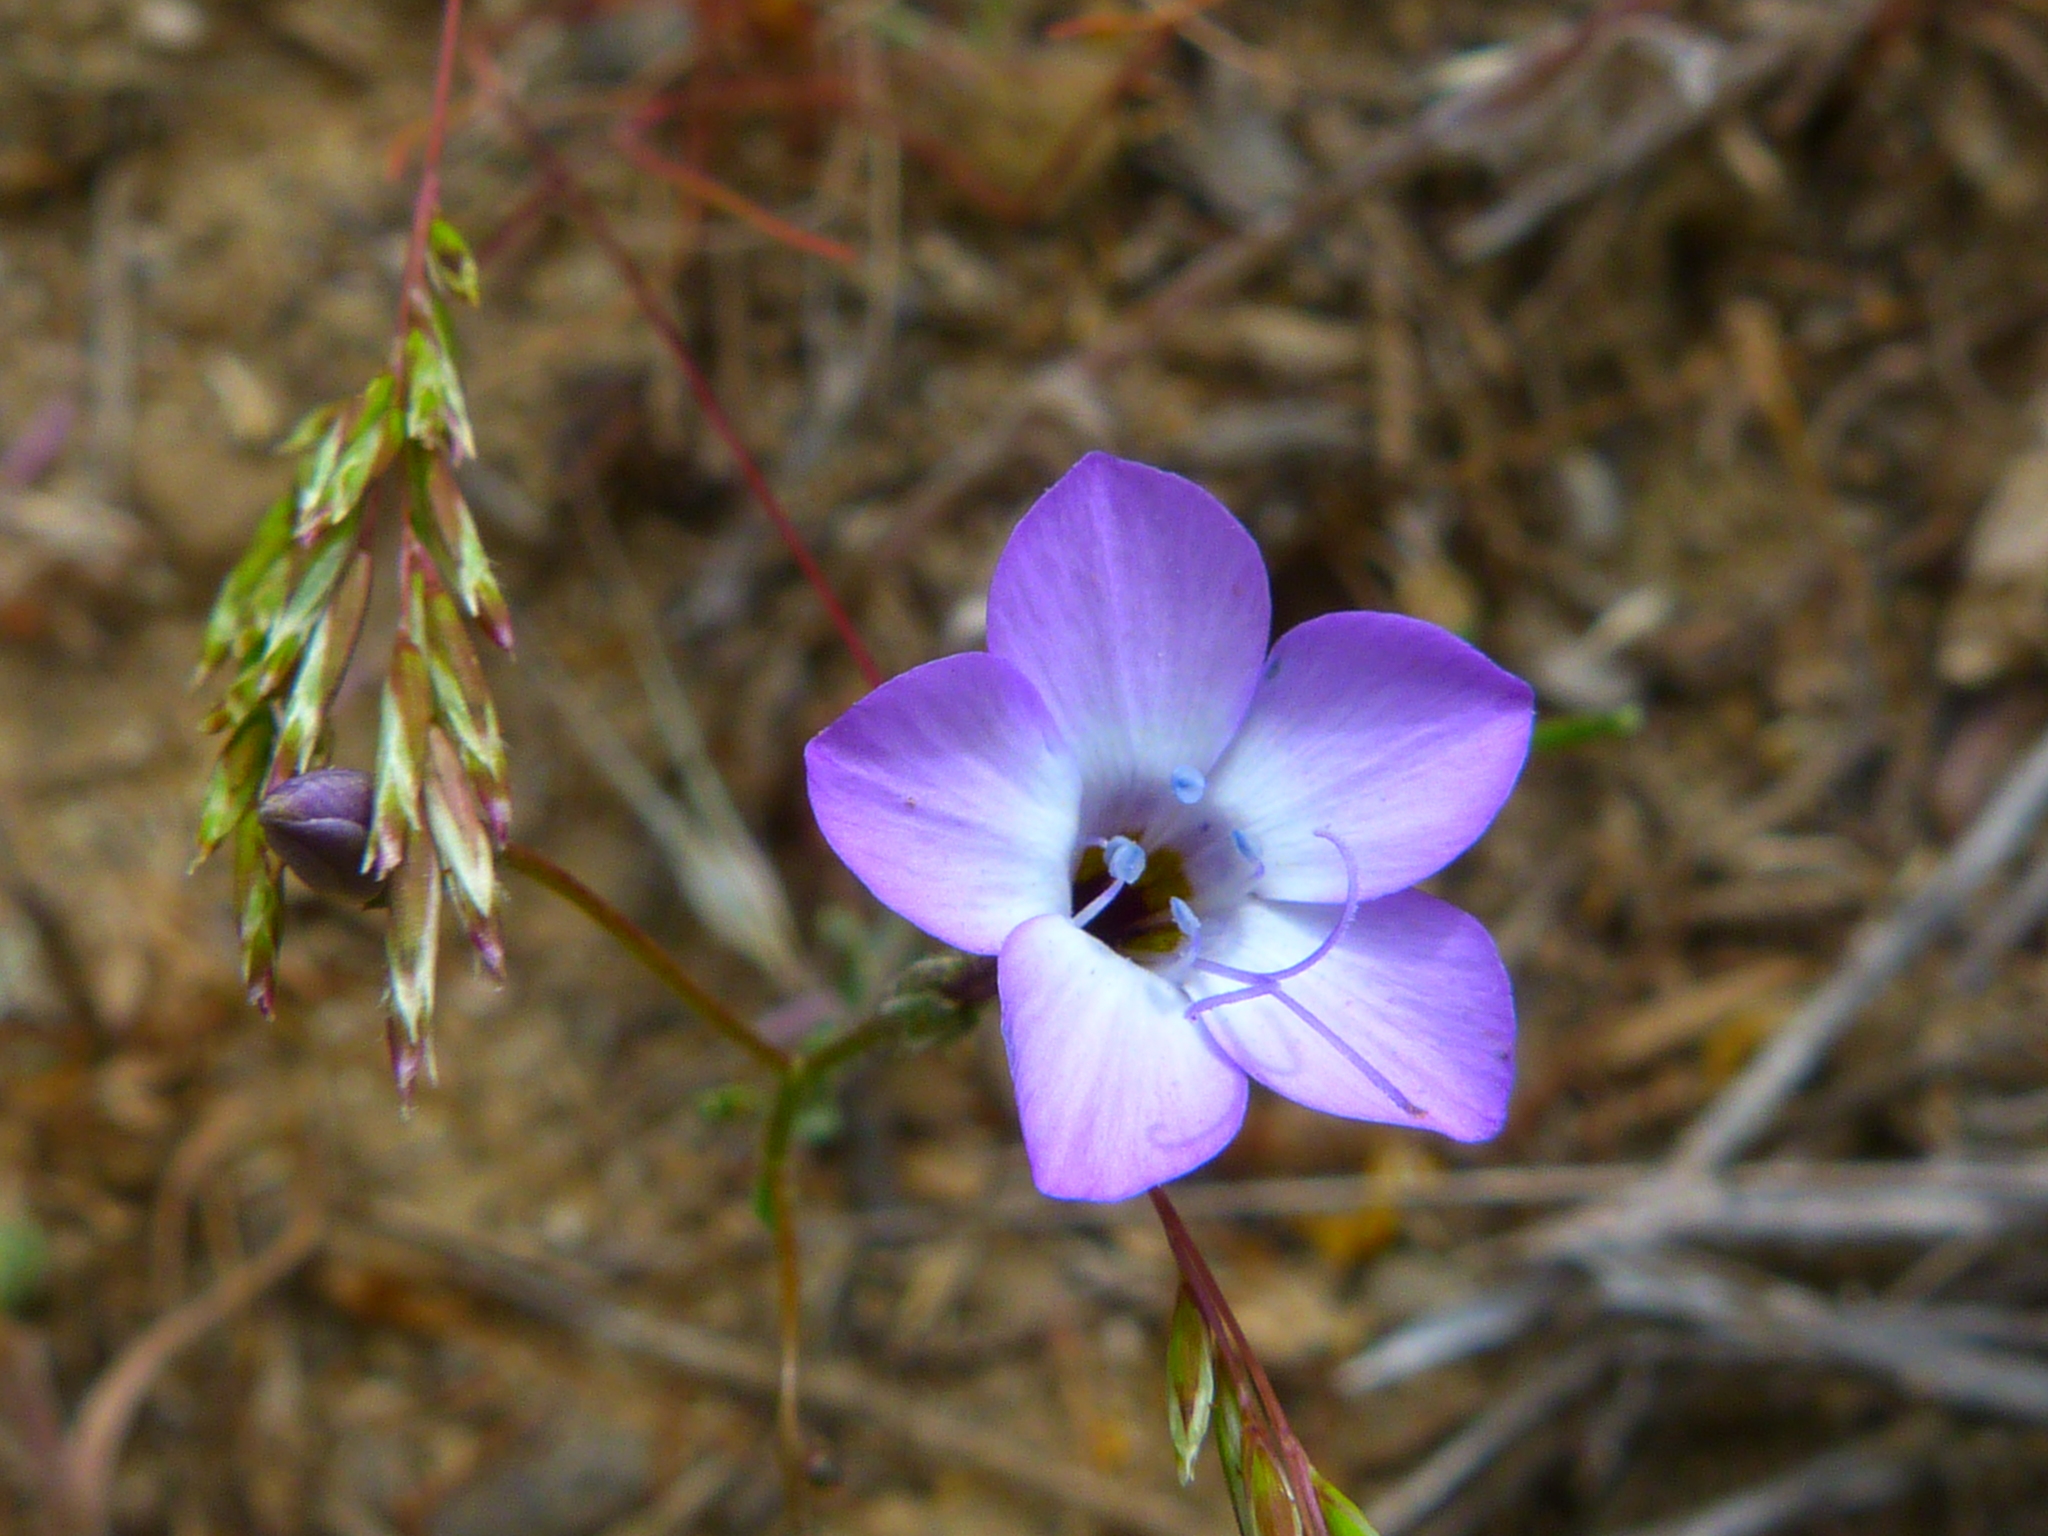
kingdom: Plantae
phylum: Tracheophyta
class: Magnoliopsida
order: Ericales
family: Polemoniaceae
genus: Gilia
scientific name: Gilia latiflora
